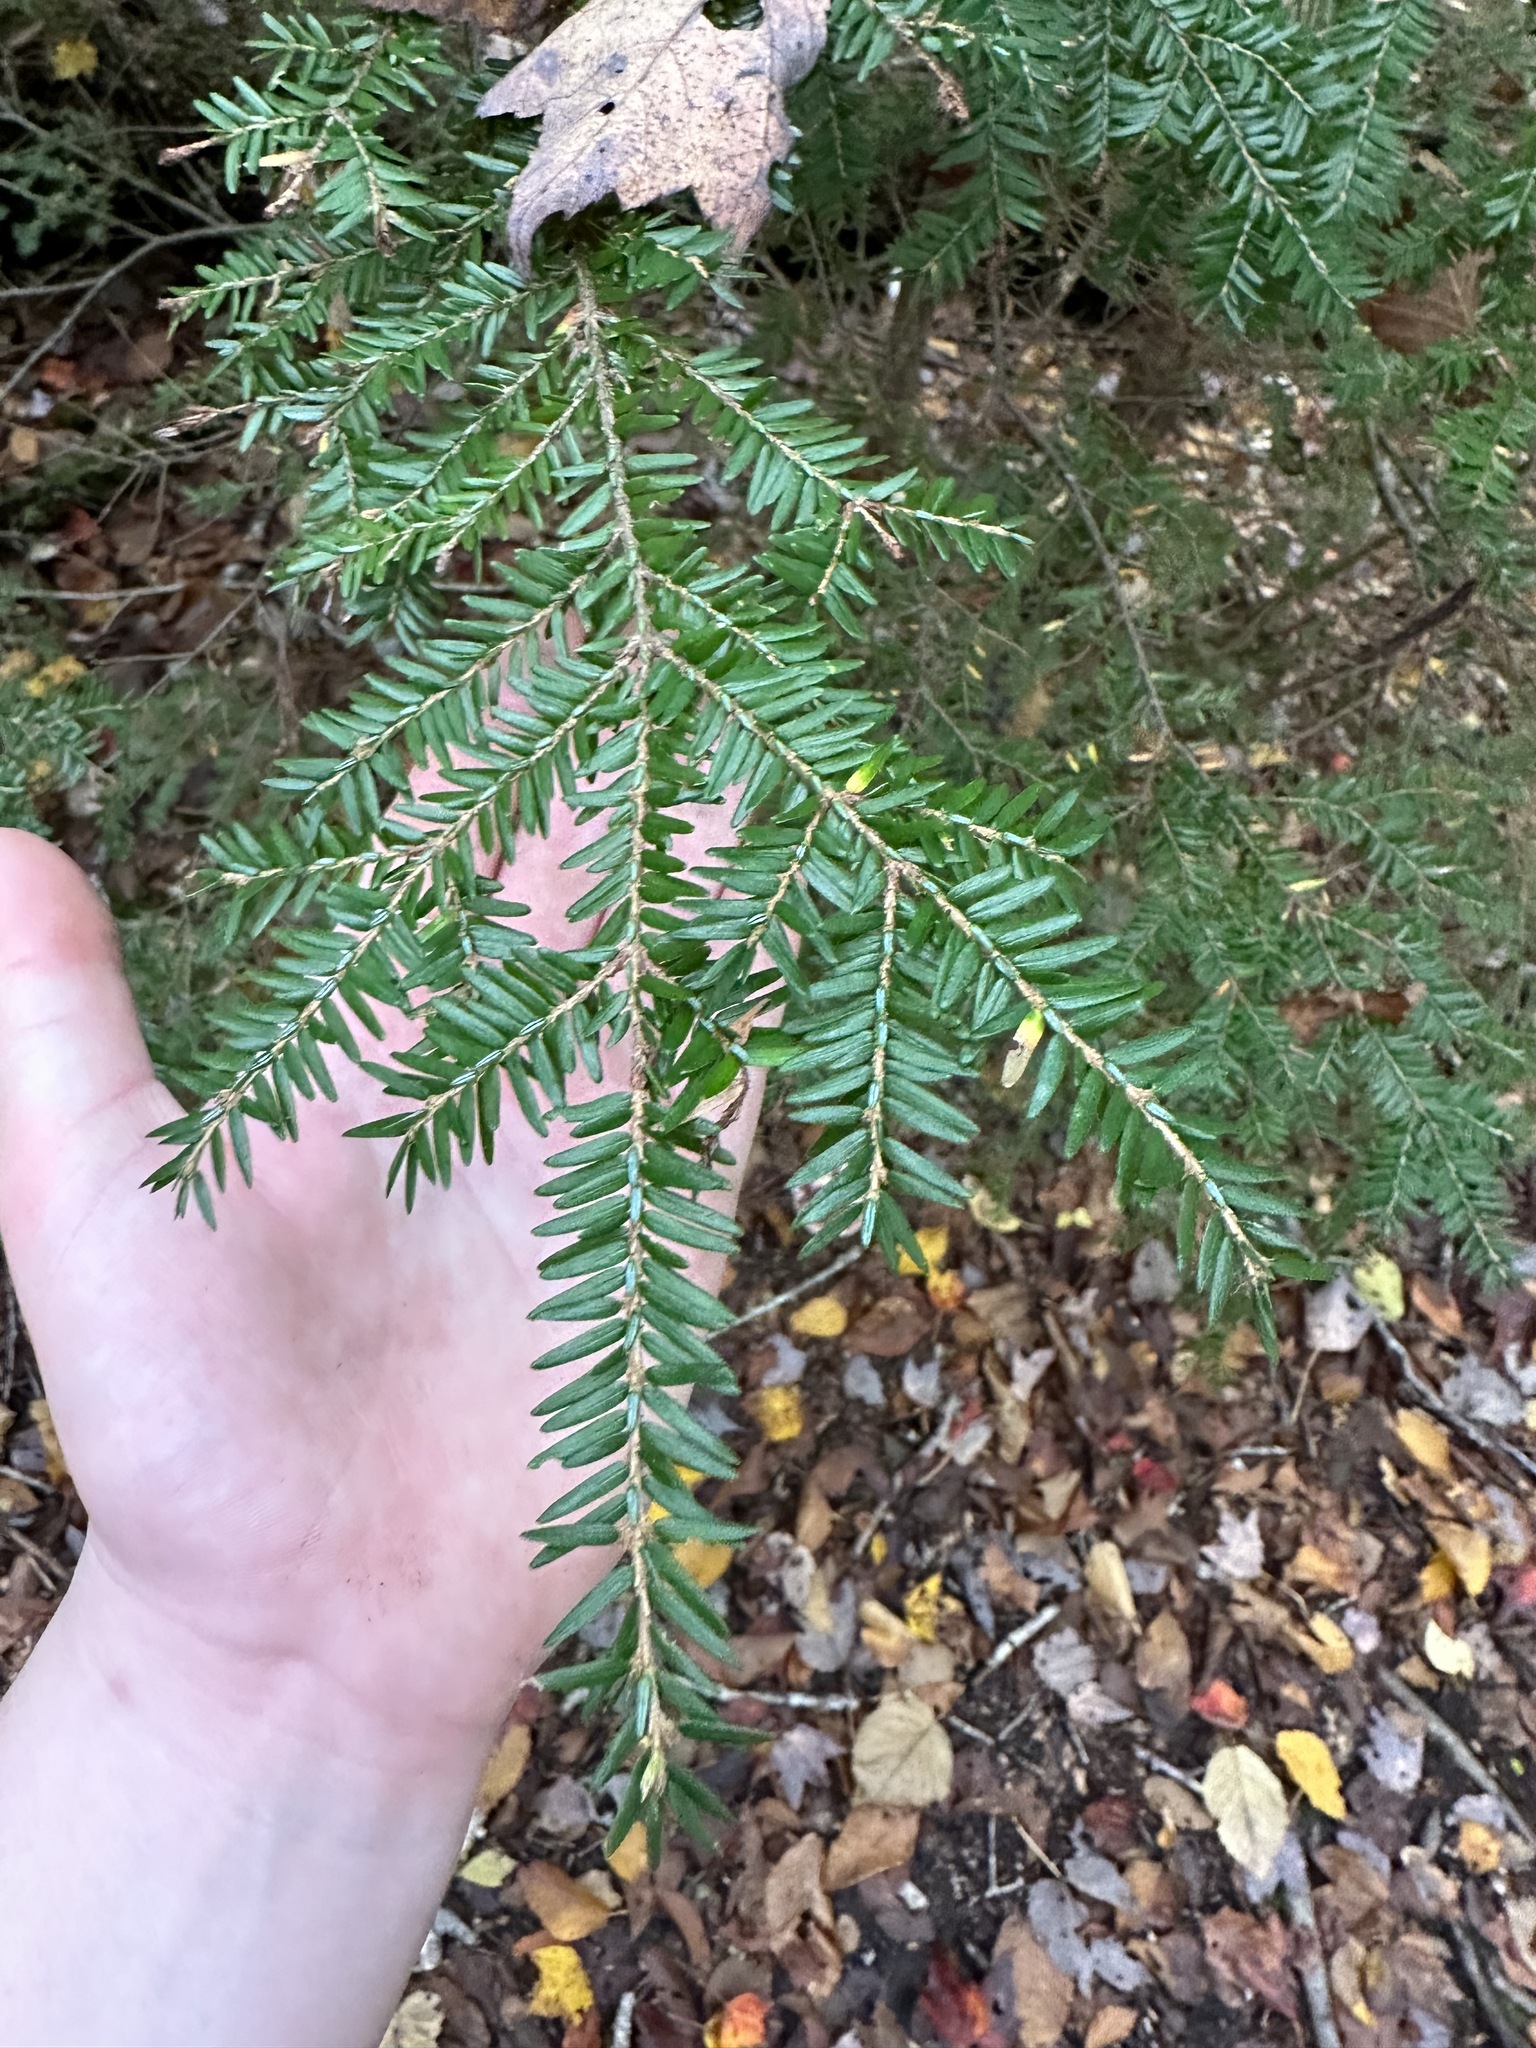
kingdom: Plantae
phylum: Tracheophyta
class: Pinopsida
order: Pinales
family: Pinaceae
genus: Tsuga
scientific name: Tsuga canadensis
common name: Eastern hemlock
